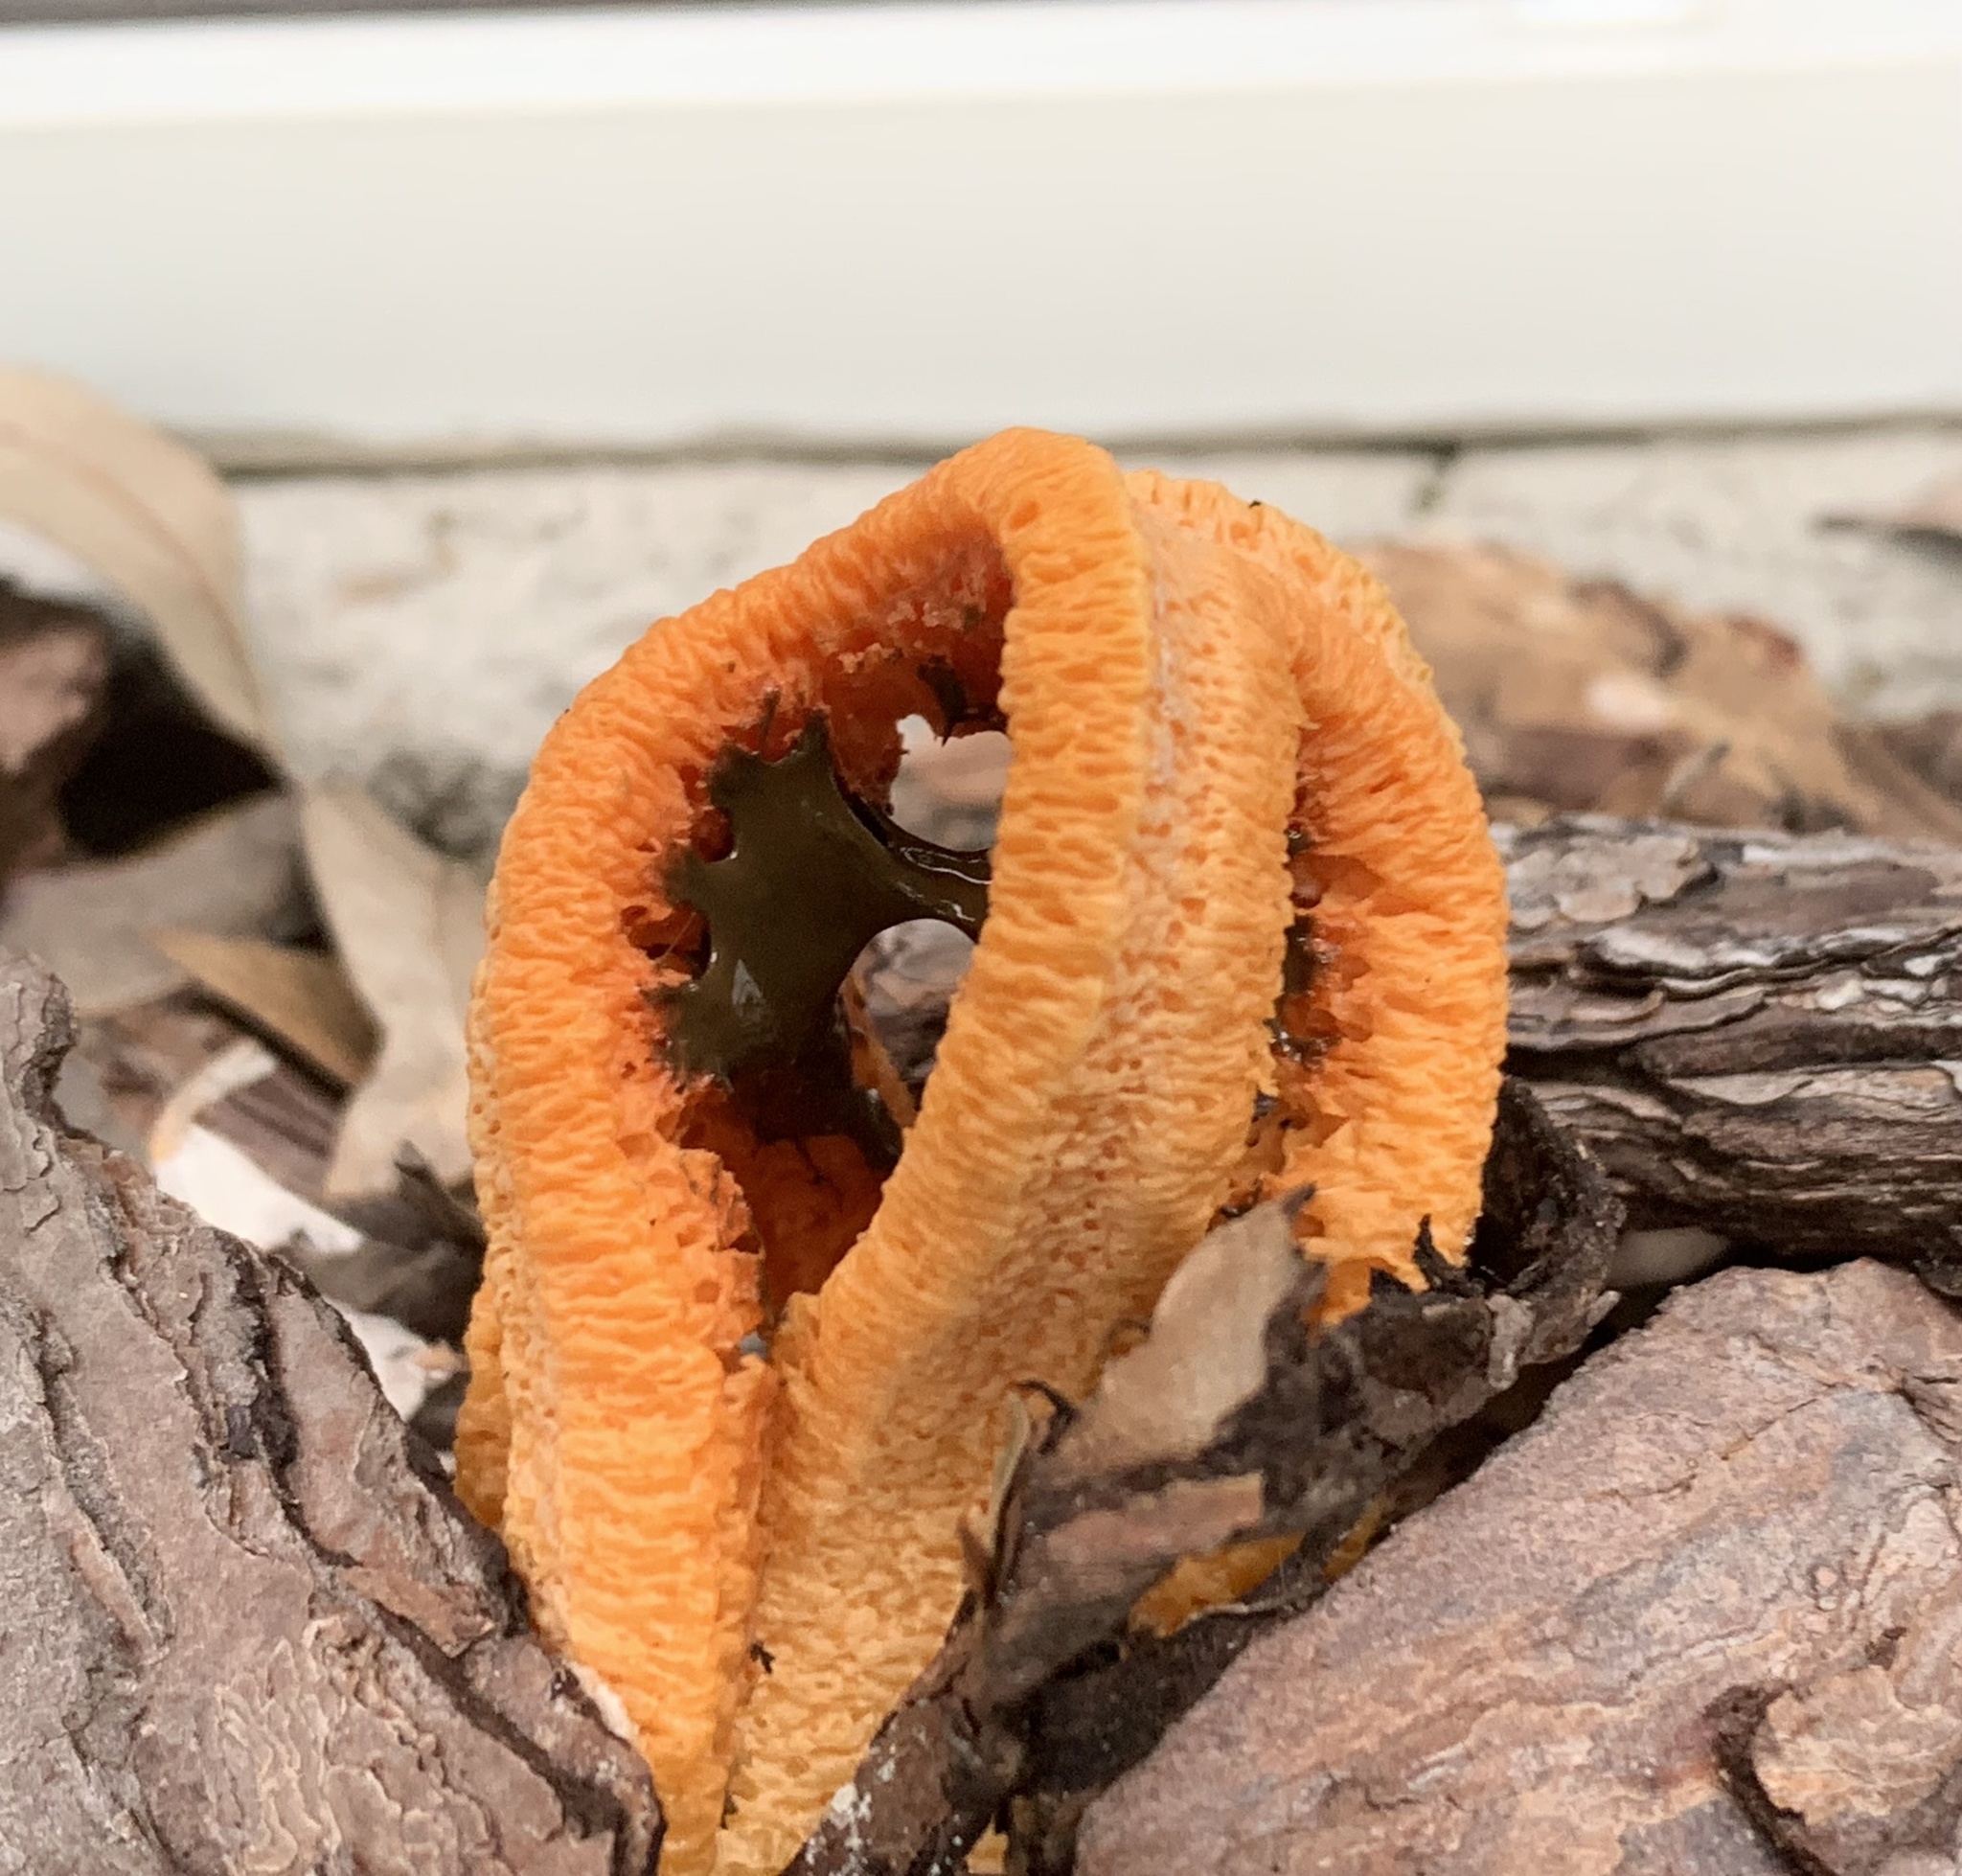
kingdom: Fungi
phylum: Basidiomycota
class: Agaricomycetes
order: Phallales
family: Phallaceae
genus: Clathrus
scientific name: Clathrus columnatus
